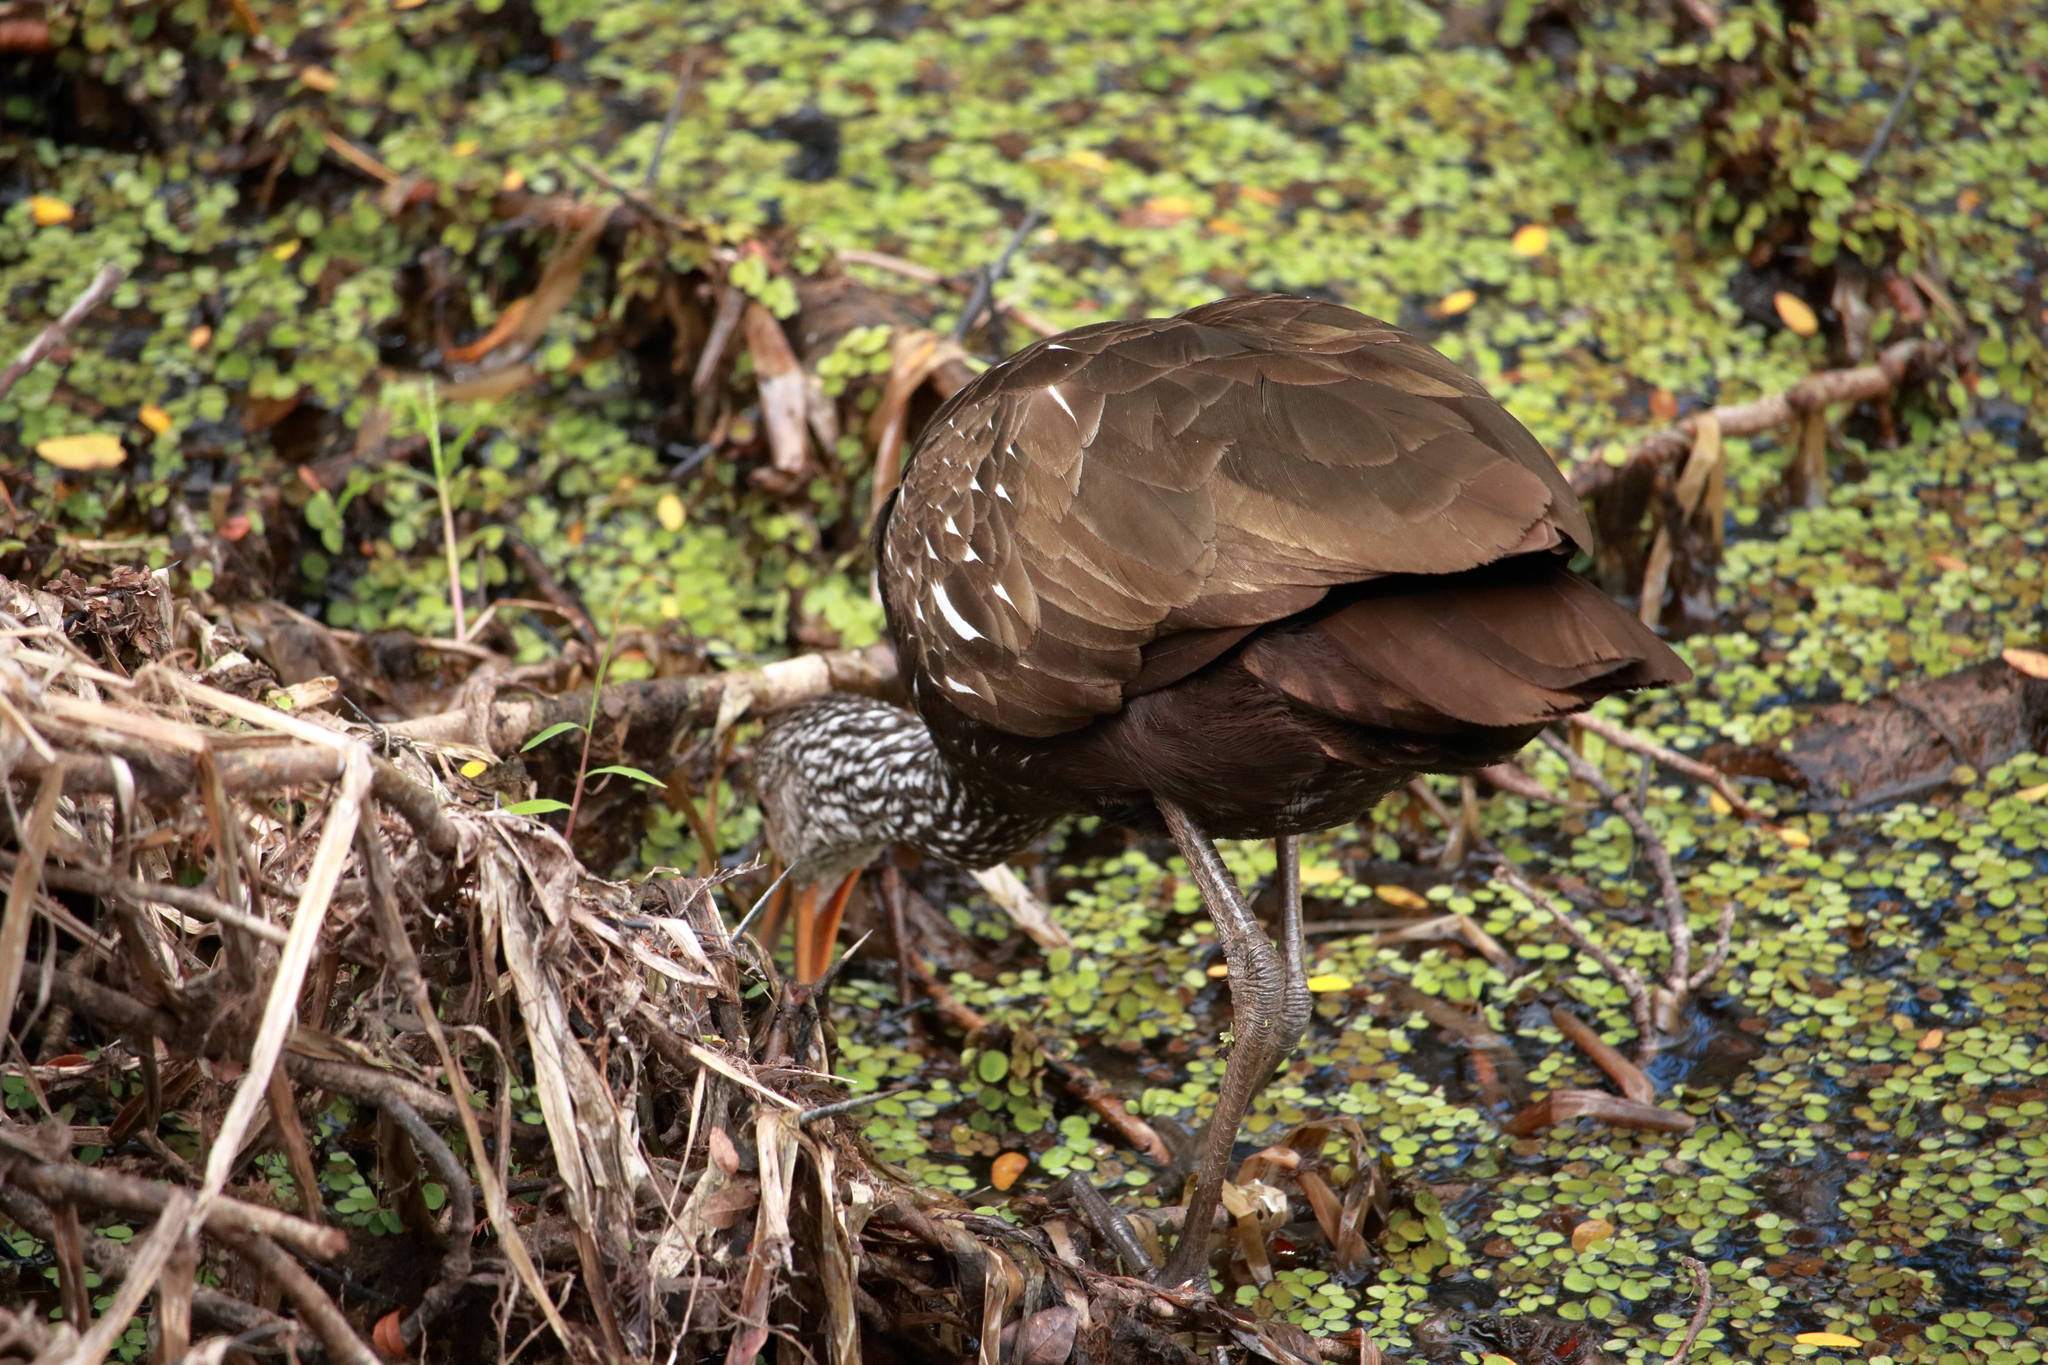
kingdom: Animalia
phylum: Chordata
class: Aves
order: Gruiformes
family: Aramidae
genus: Aramus
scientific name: Aramus guarauna
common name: Limpkin
